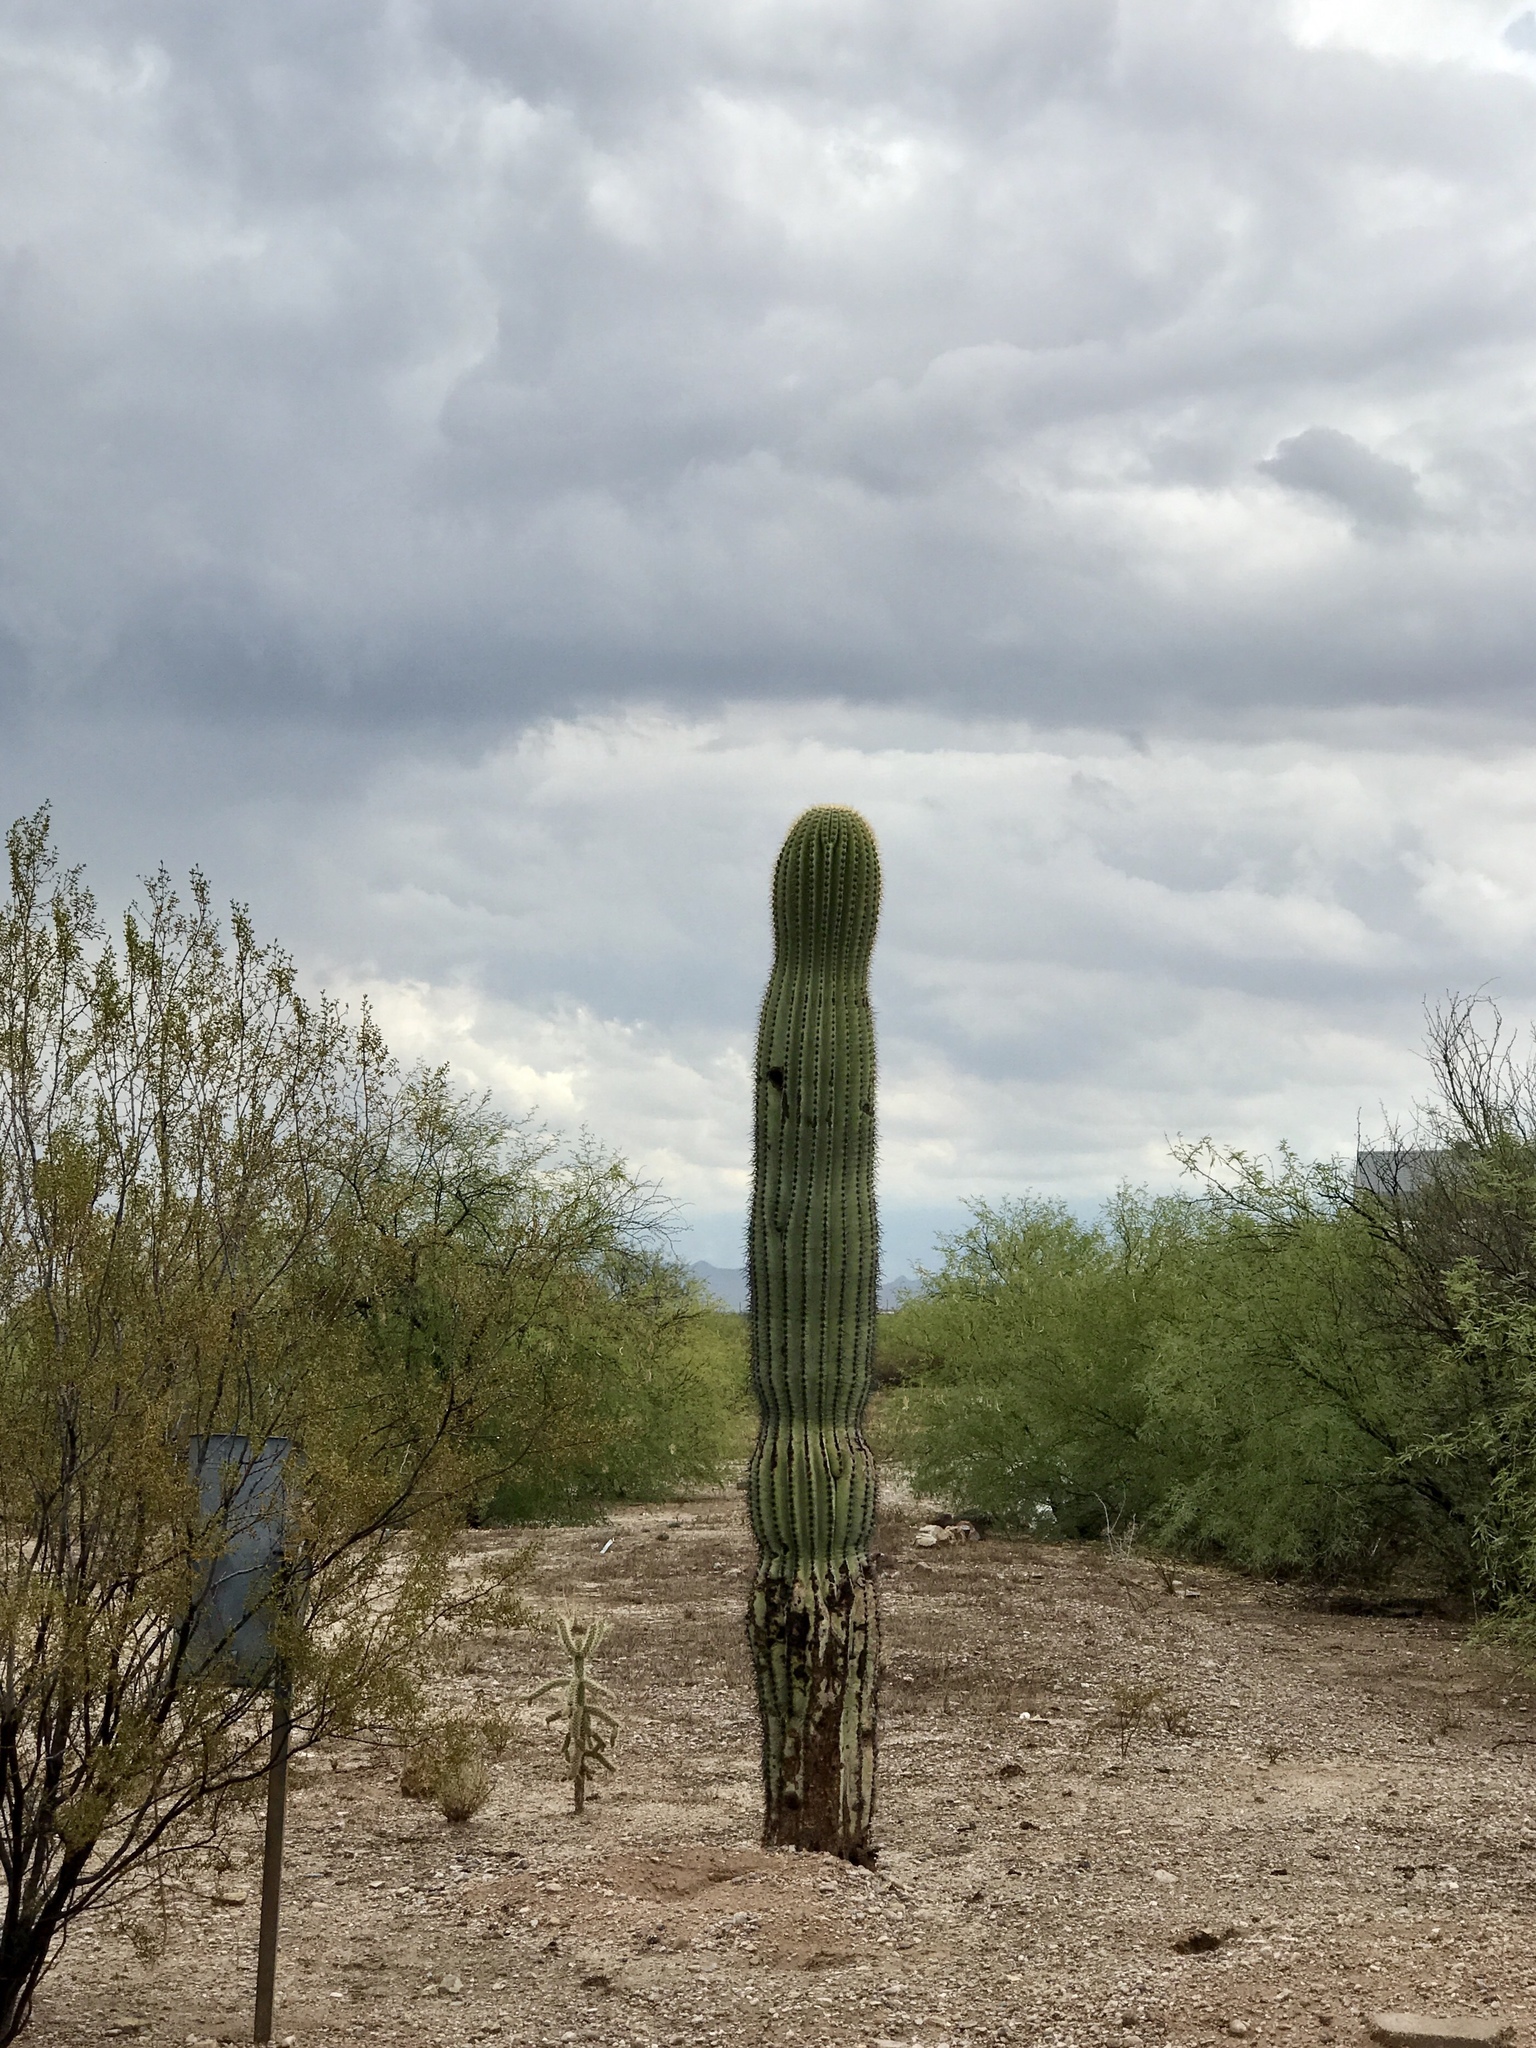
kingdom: Plantae
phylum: Tracheophyta
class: Magnoliopsida
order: Caryophyllales
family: Cactaceae
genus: Carnegiea
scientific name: Carnegiea gigantea
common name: Saguaro
